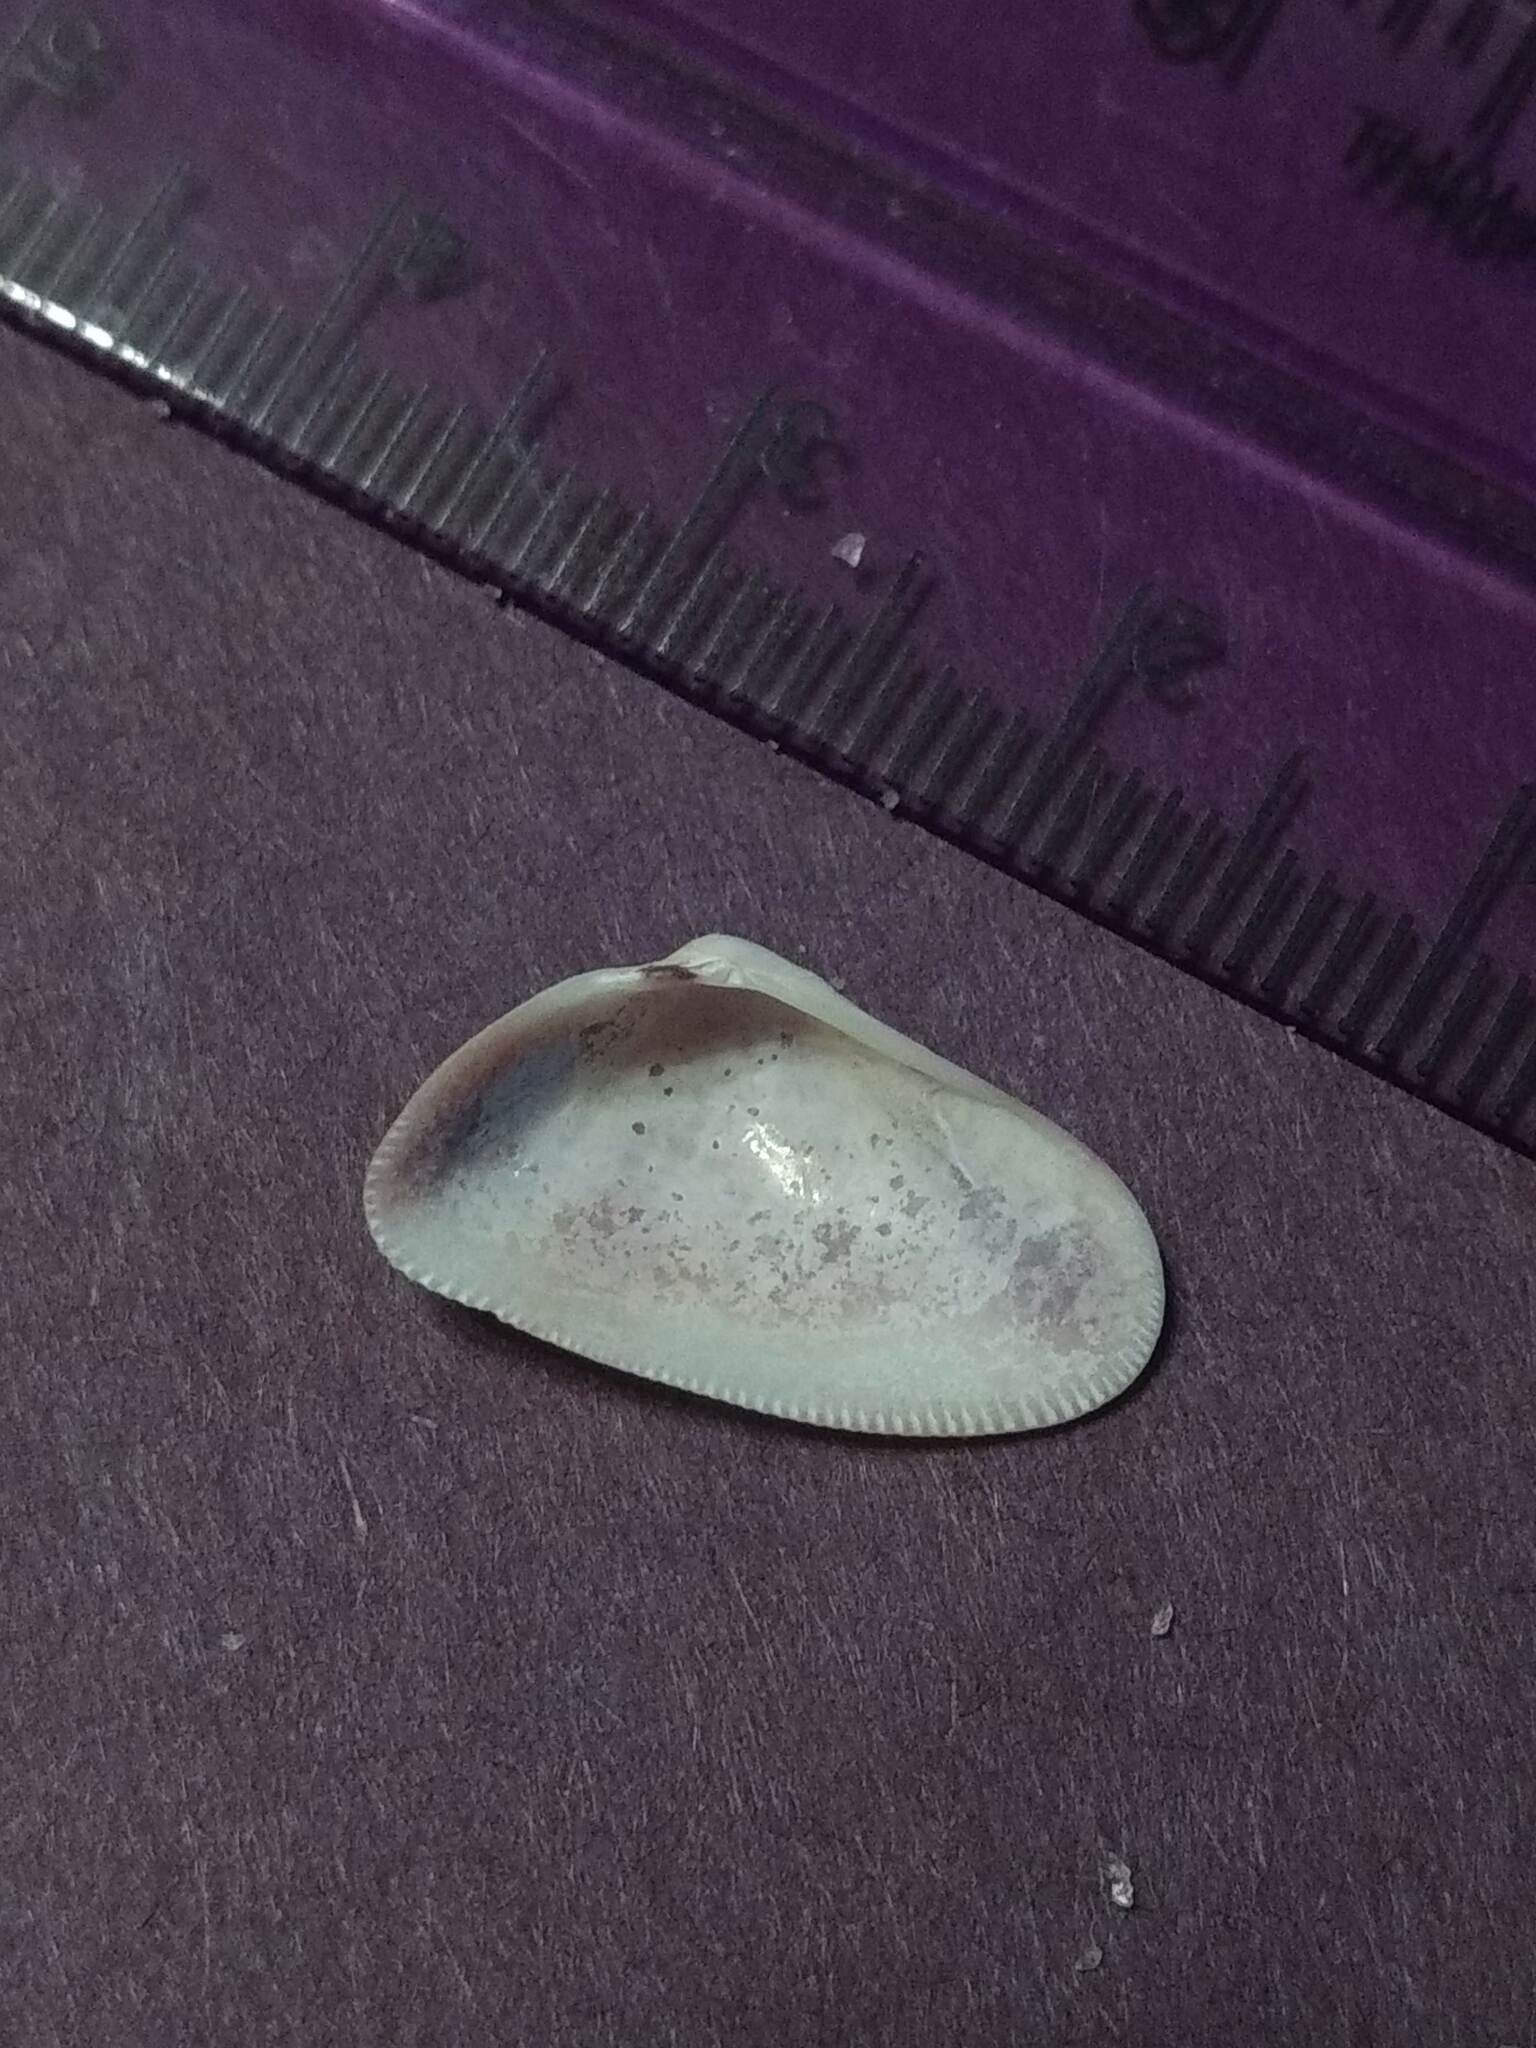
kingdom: Animalia
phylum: Mollusca
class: Bivalvia
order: Cardiida
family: Donacidae
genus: Donax
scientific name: Donax variabilis
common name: Butterfly shell
